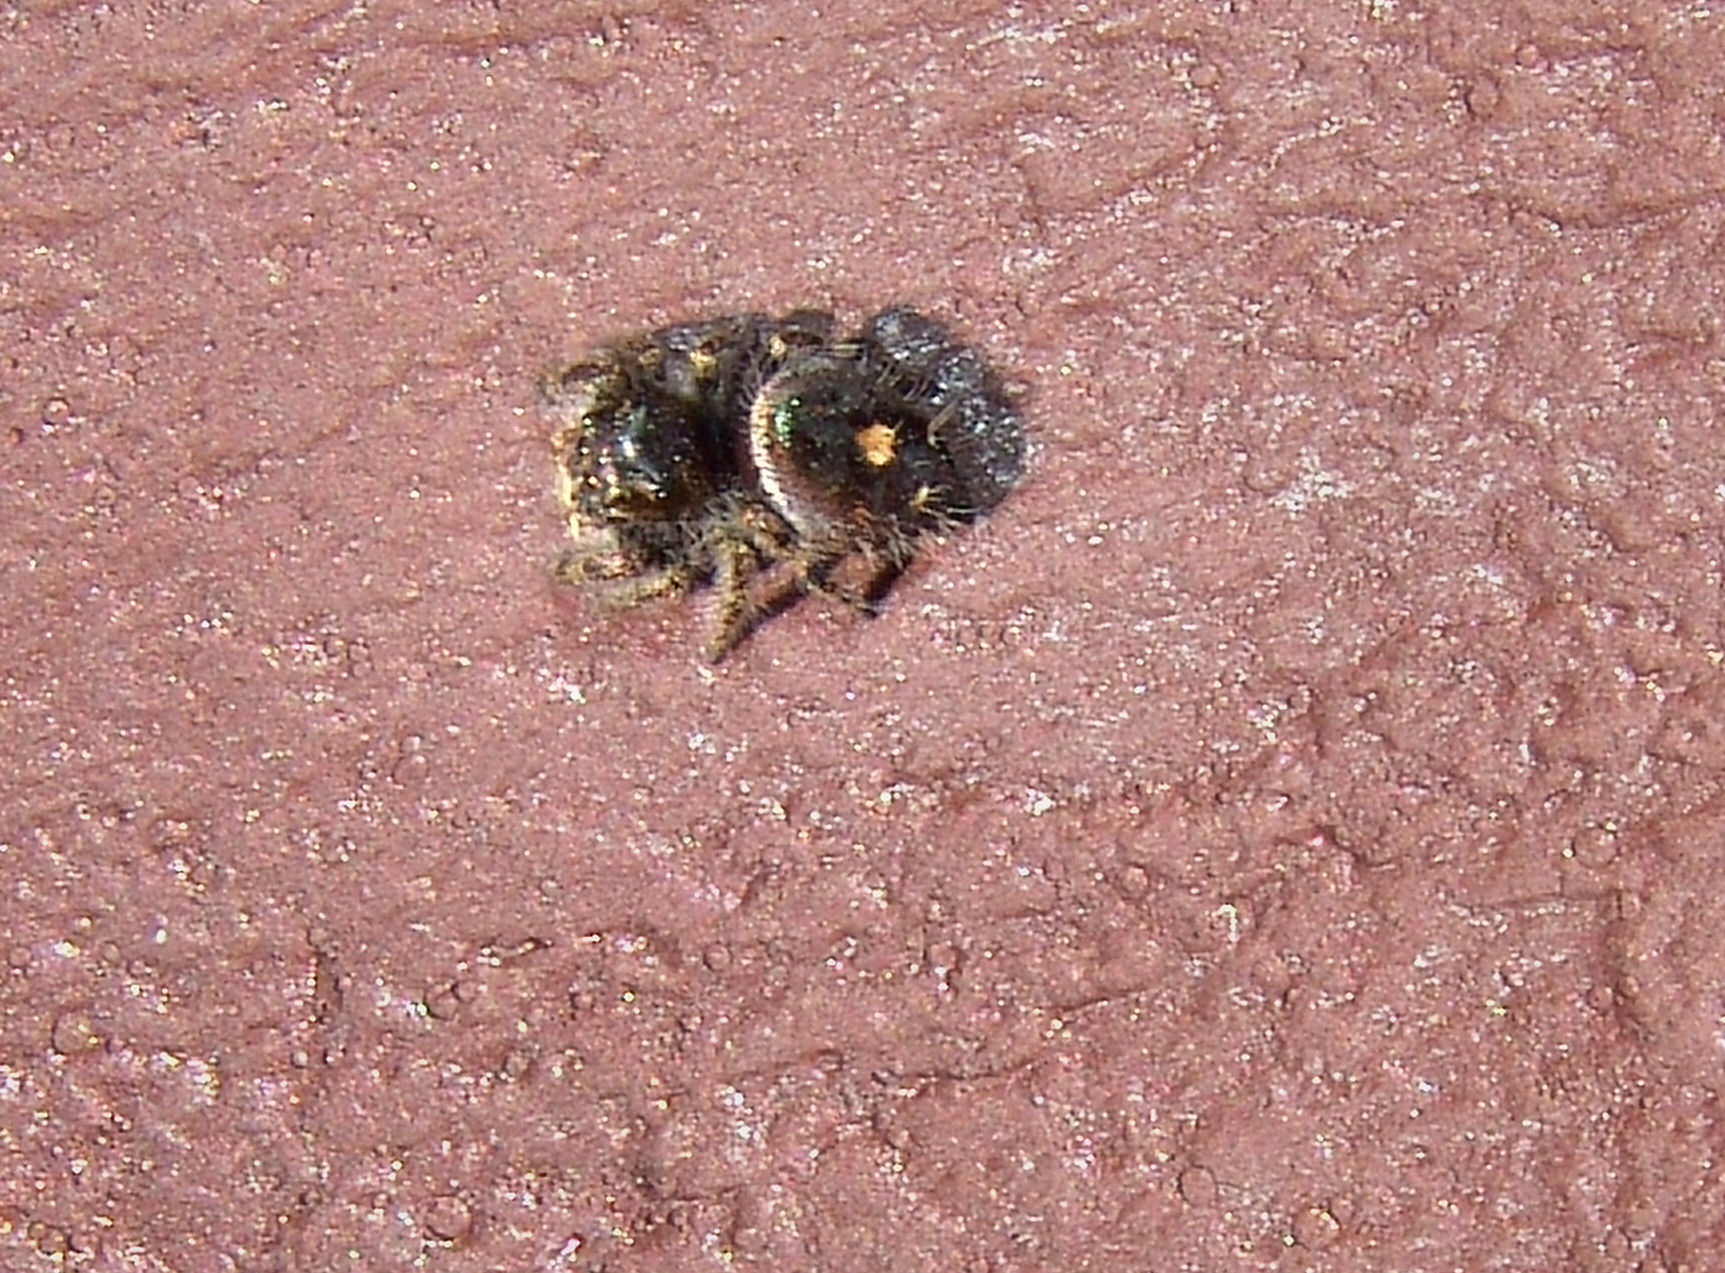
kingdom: Animalia
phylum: Arthropoda
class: Arachnida
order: Araneae
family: Salticidae
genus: Phidippus
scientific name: Phidippus audax
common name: Bold jumper
